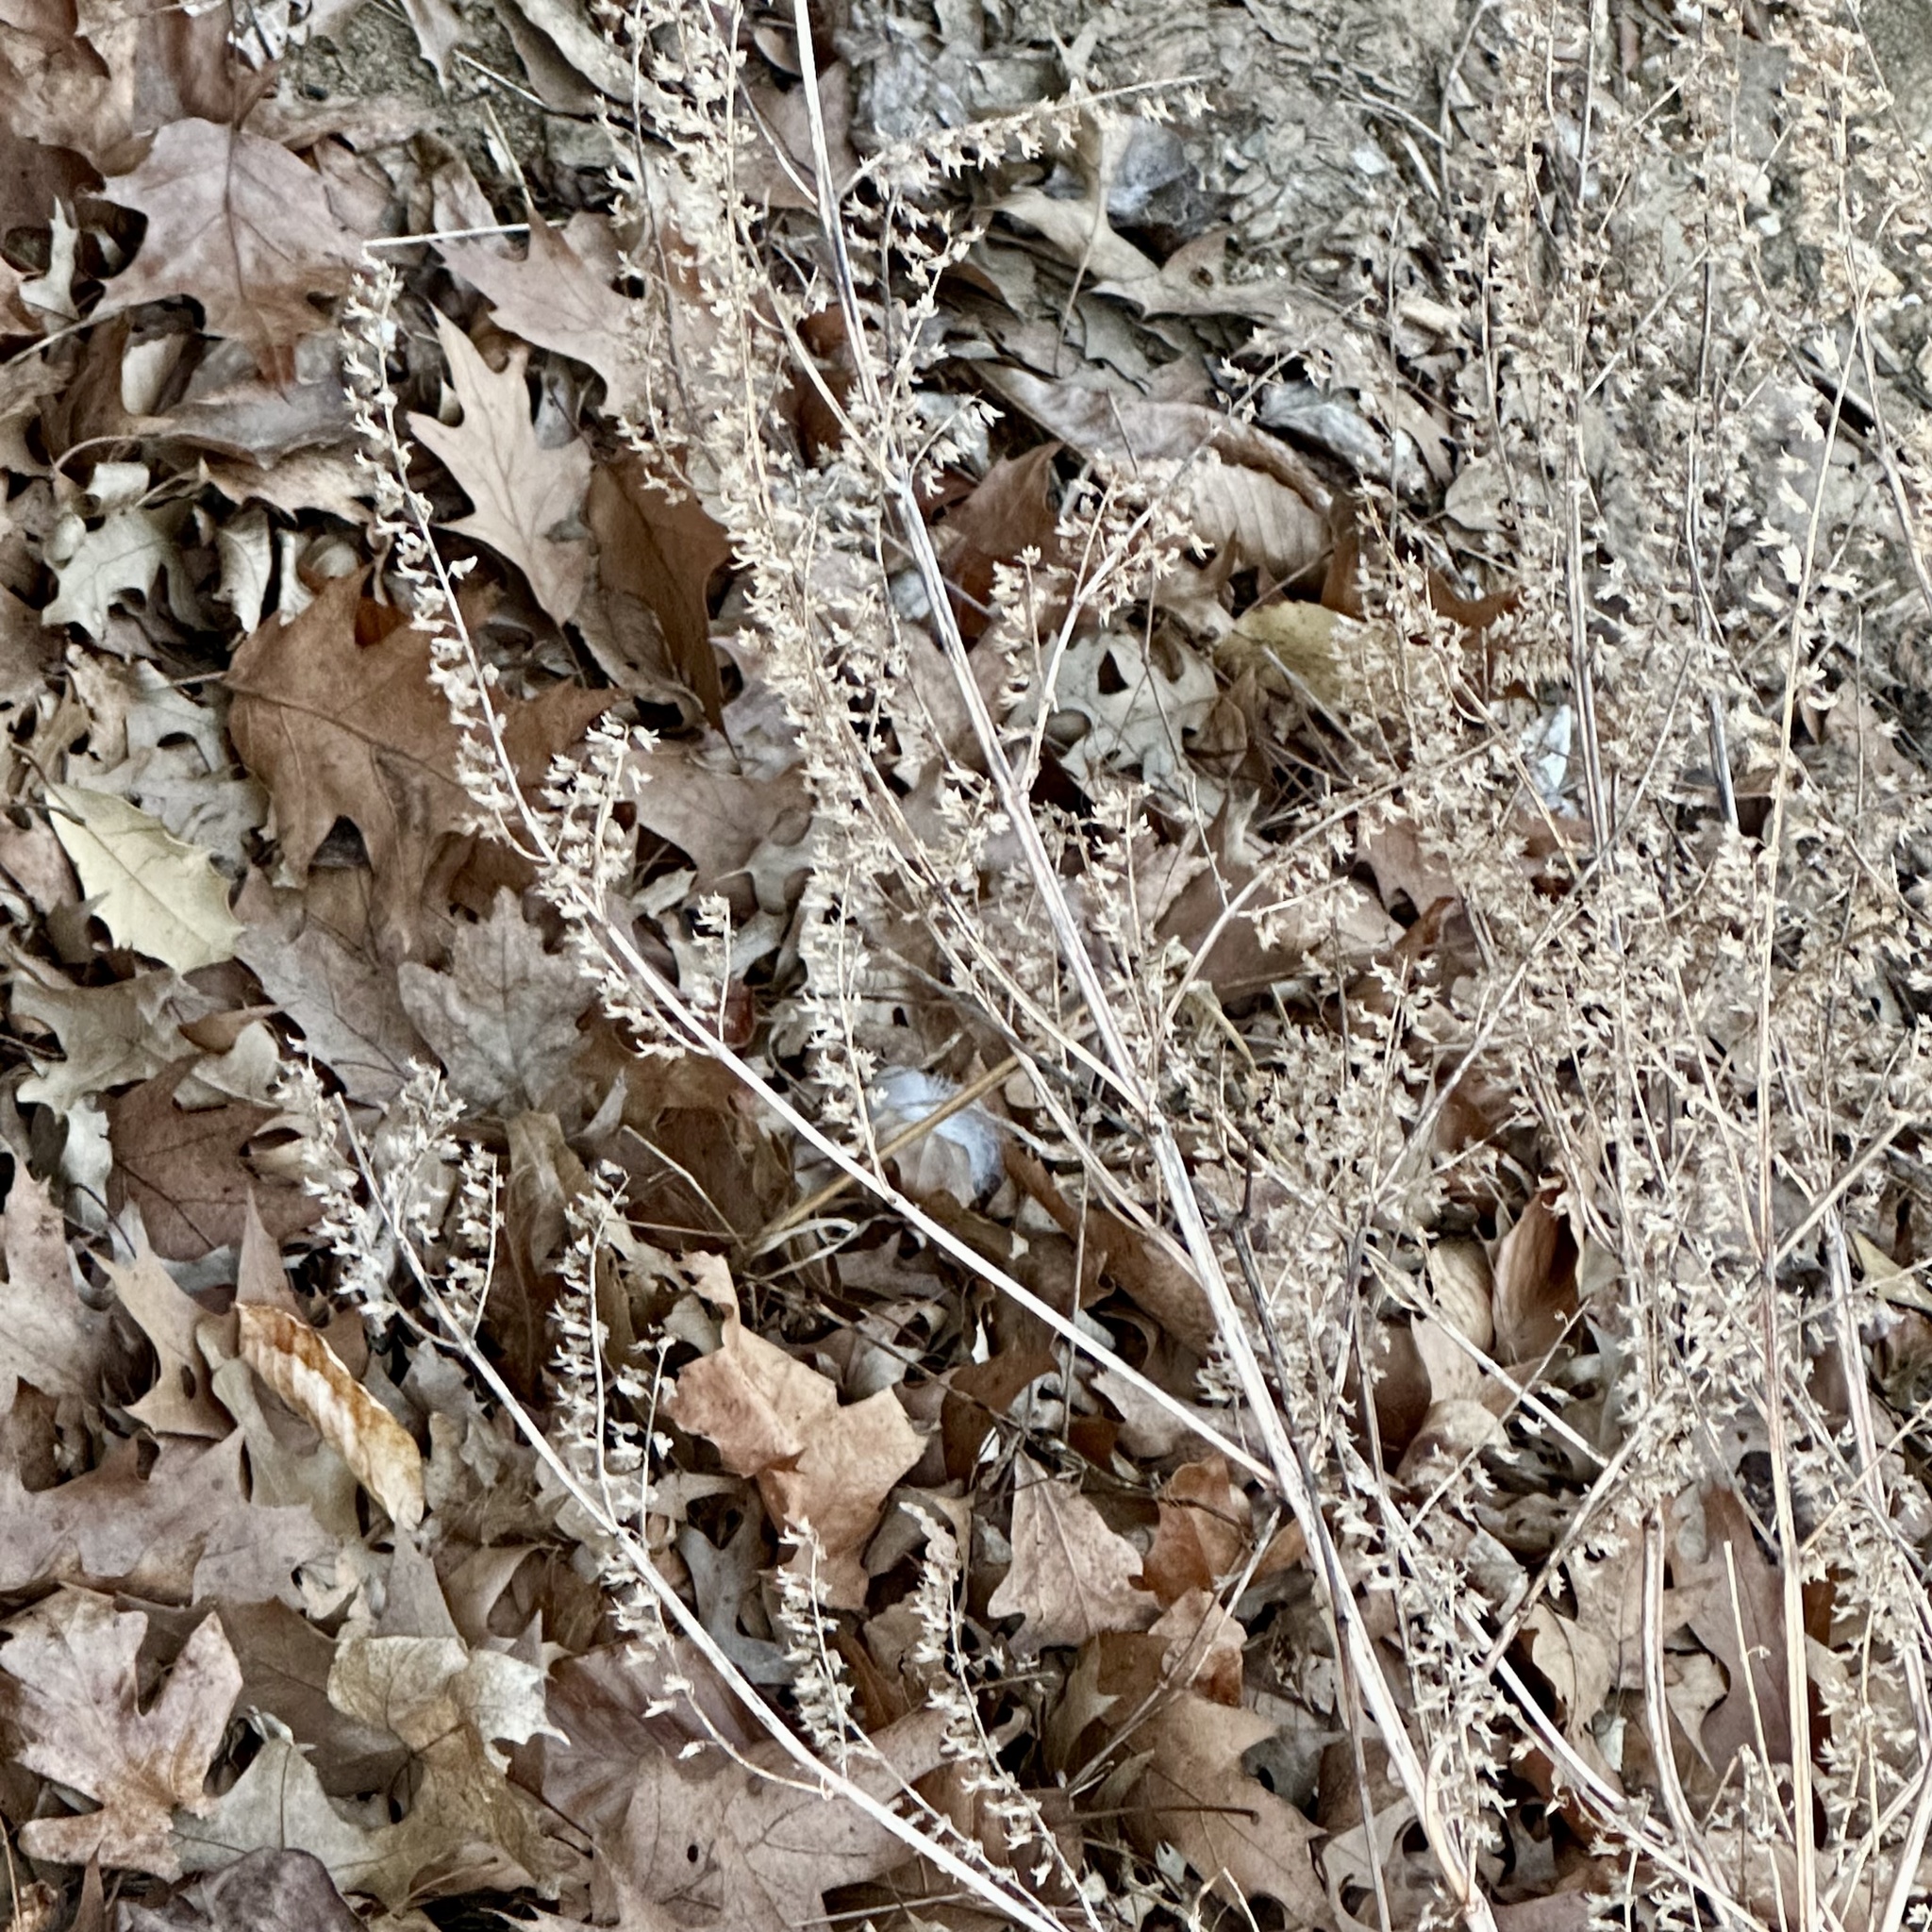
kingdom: Plantae
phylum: Tracheophyta
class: Magnoliopsida
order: Lamiales
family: Lamiaceae
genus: Perilla
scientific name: Perilla frutescens
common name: Perilla
